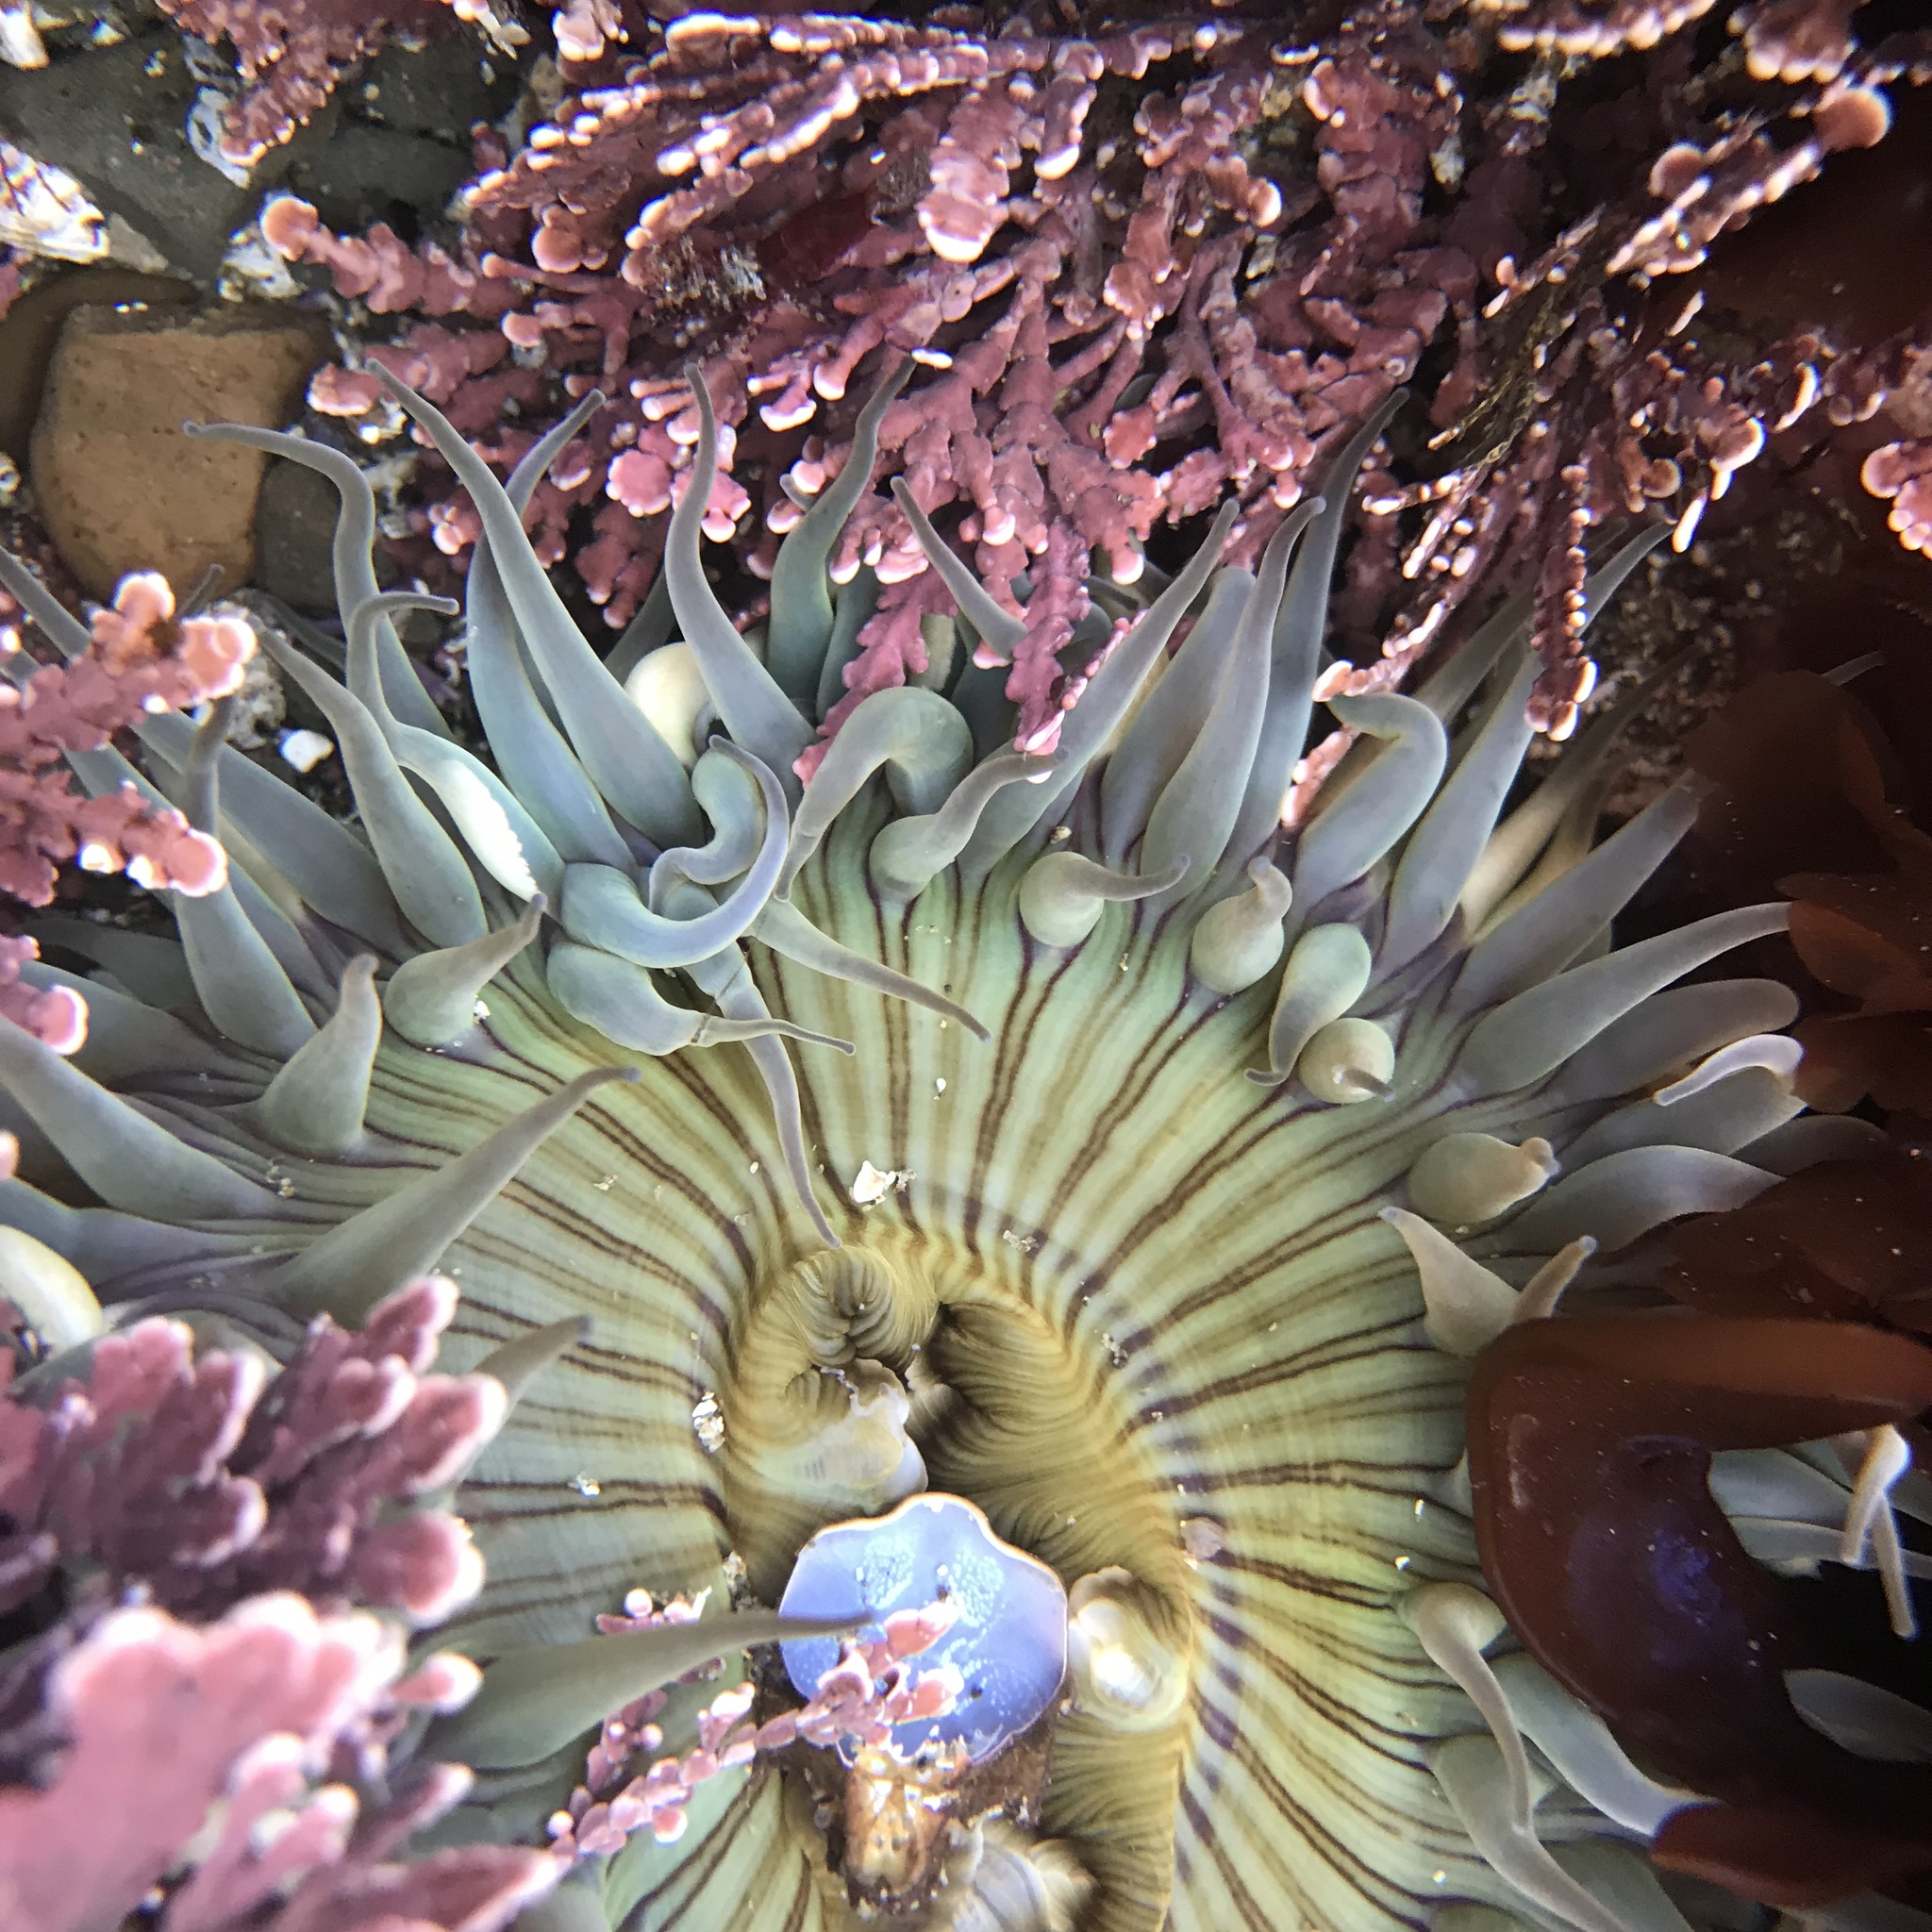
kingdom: Animalia
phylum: Cnidaria
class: Anthozoa
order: Actiniaria
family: Actiniidae
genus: Anthopleura
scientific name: Anthopleura sola
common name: Sun anemone
